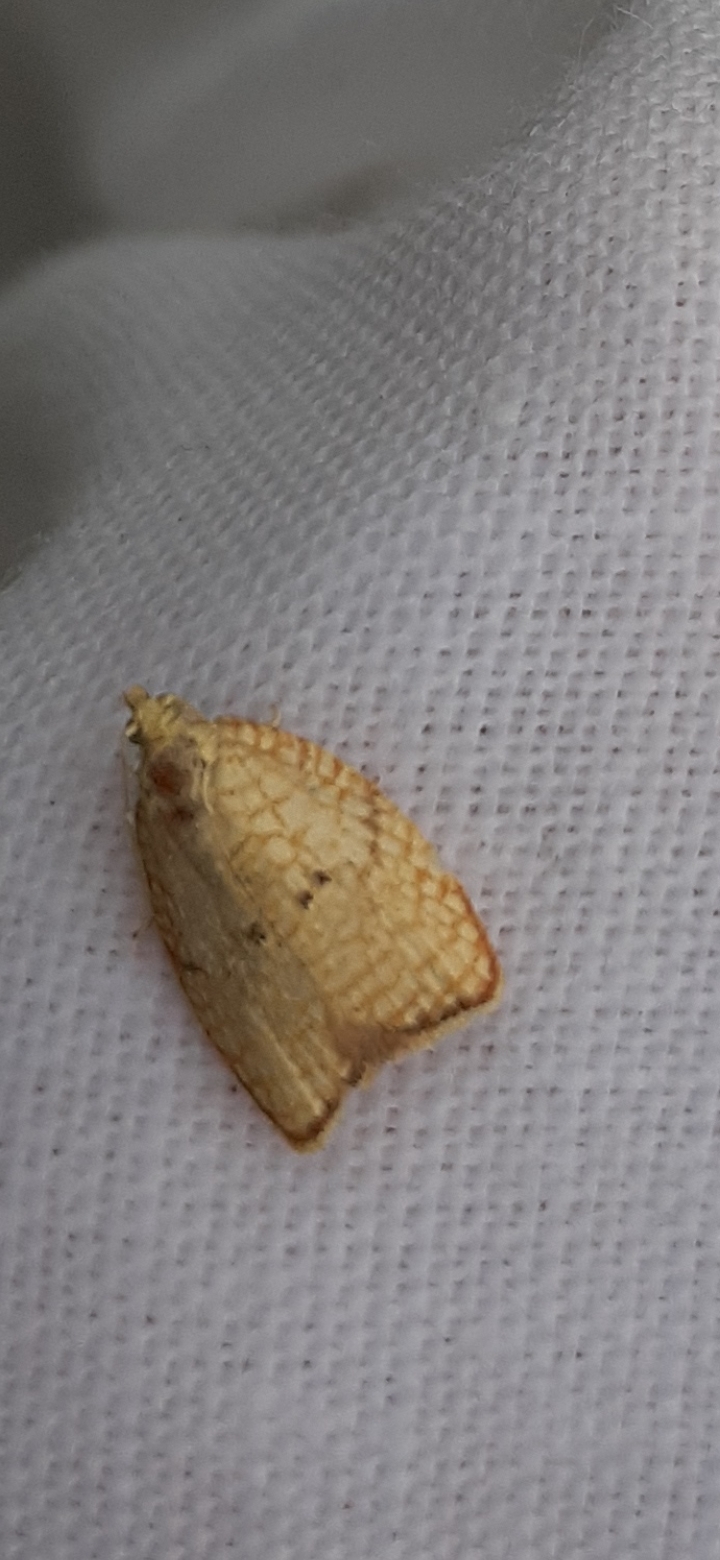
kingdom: Animalia
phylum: Arthropoda
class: Insecta
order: Lepidoptera
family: Tortricidae
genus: Acleris
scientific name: Acleris forsskaleana
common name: Maple button
